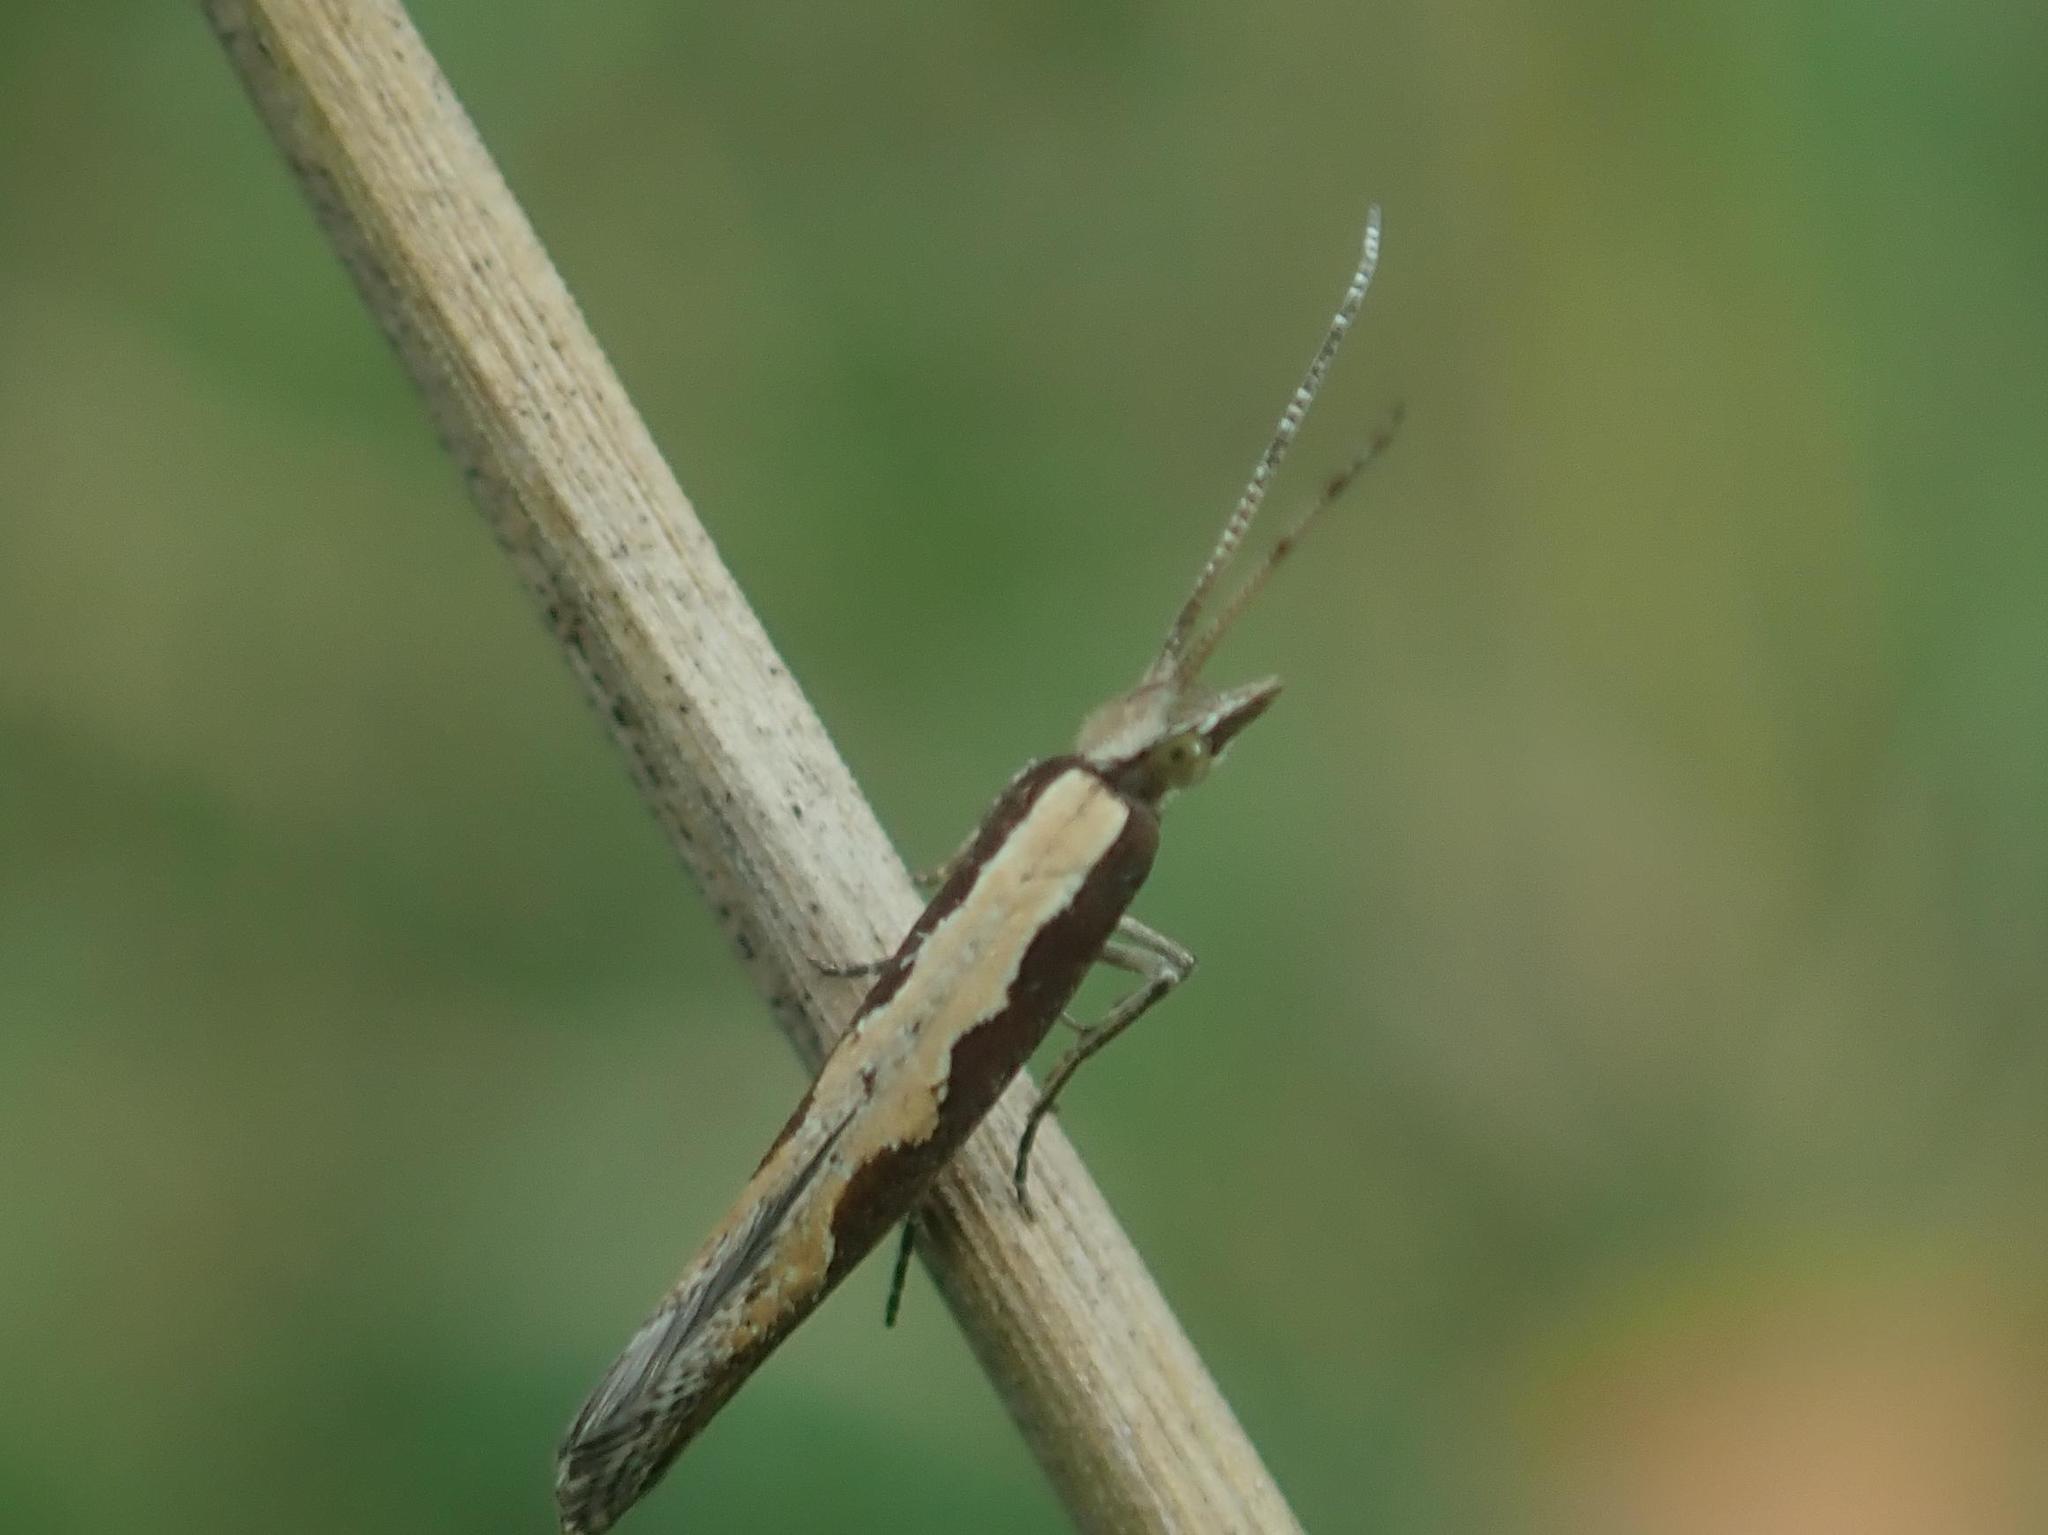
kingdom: Animalia
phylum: Arthropoda
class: Insecta
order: Lepidoptera
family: Plutellidae
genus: Plutella
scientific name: Plutella xylostella
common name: Diamond-back moth
